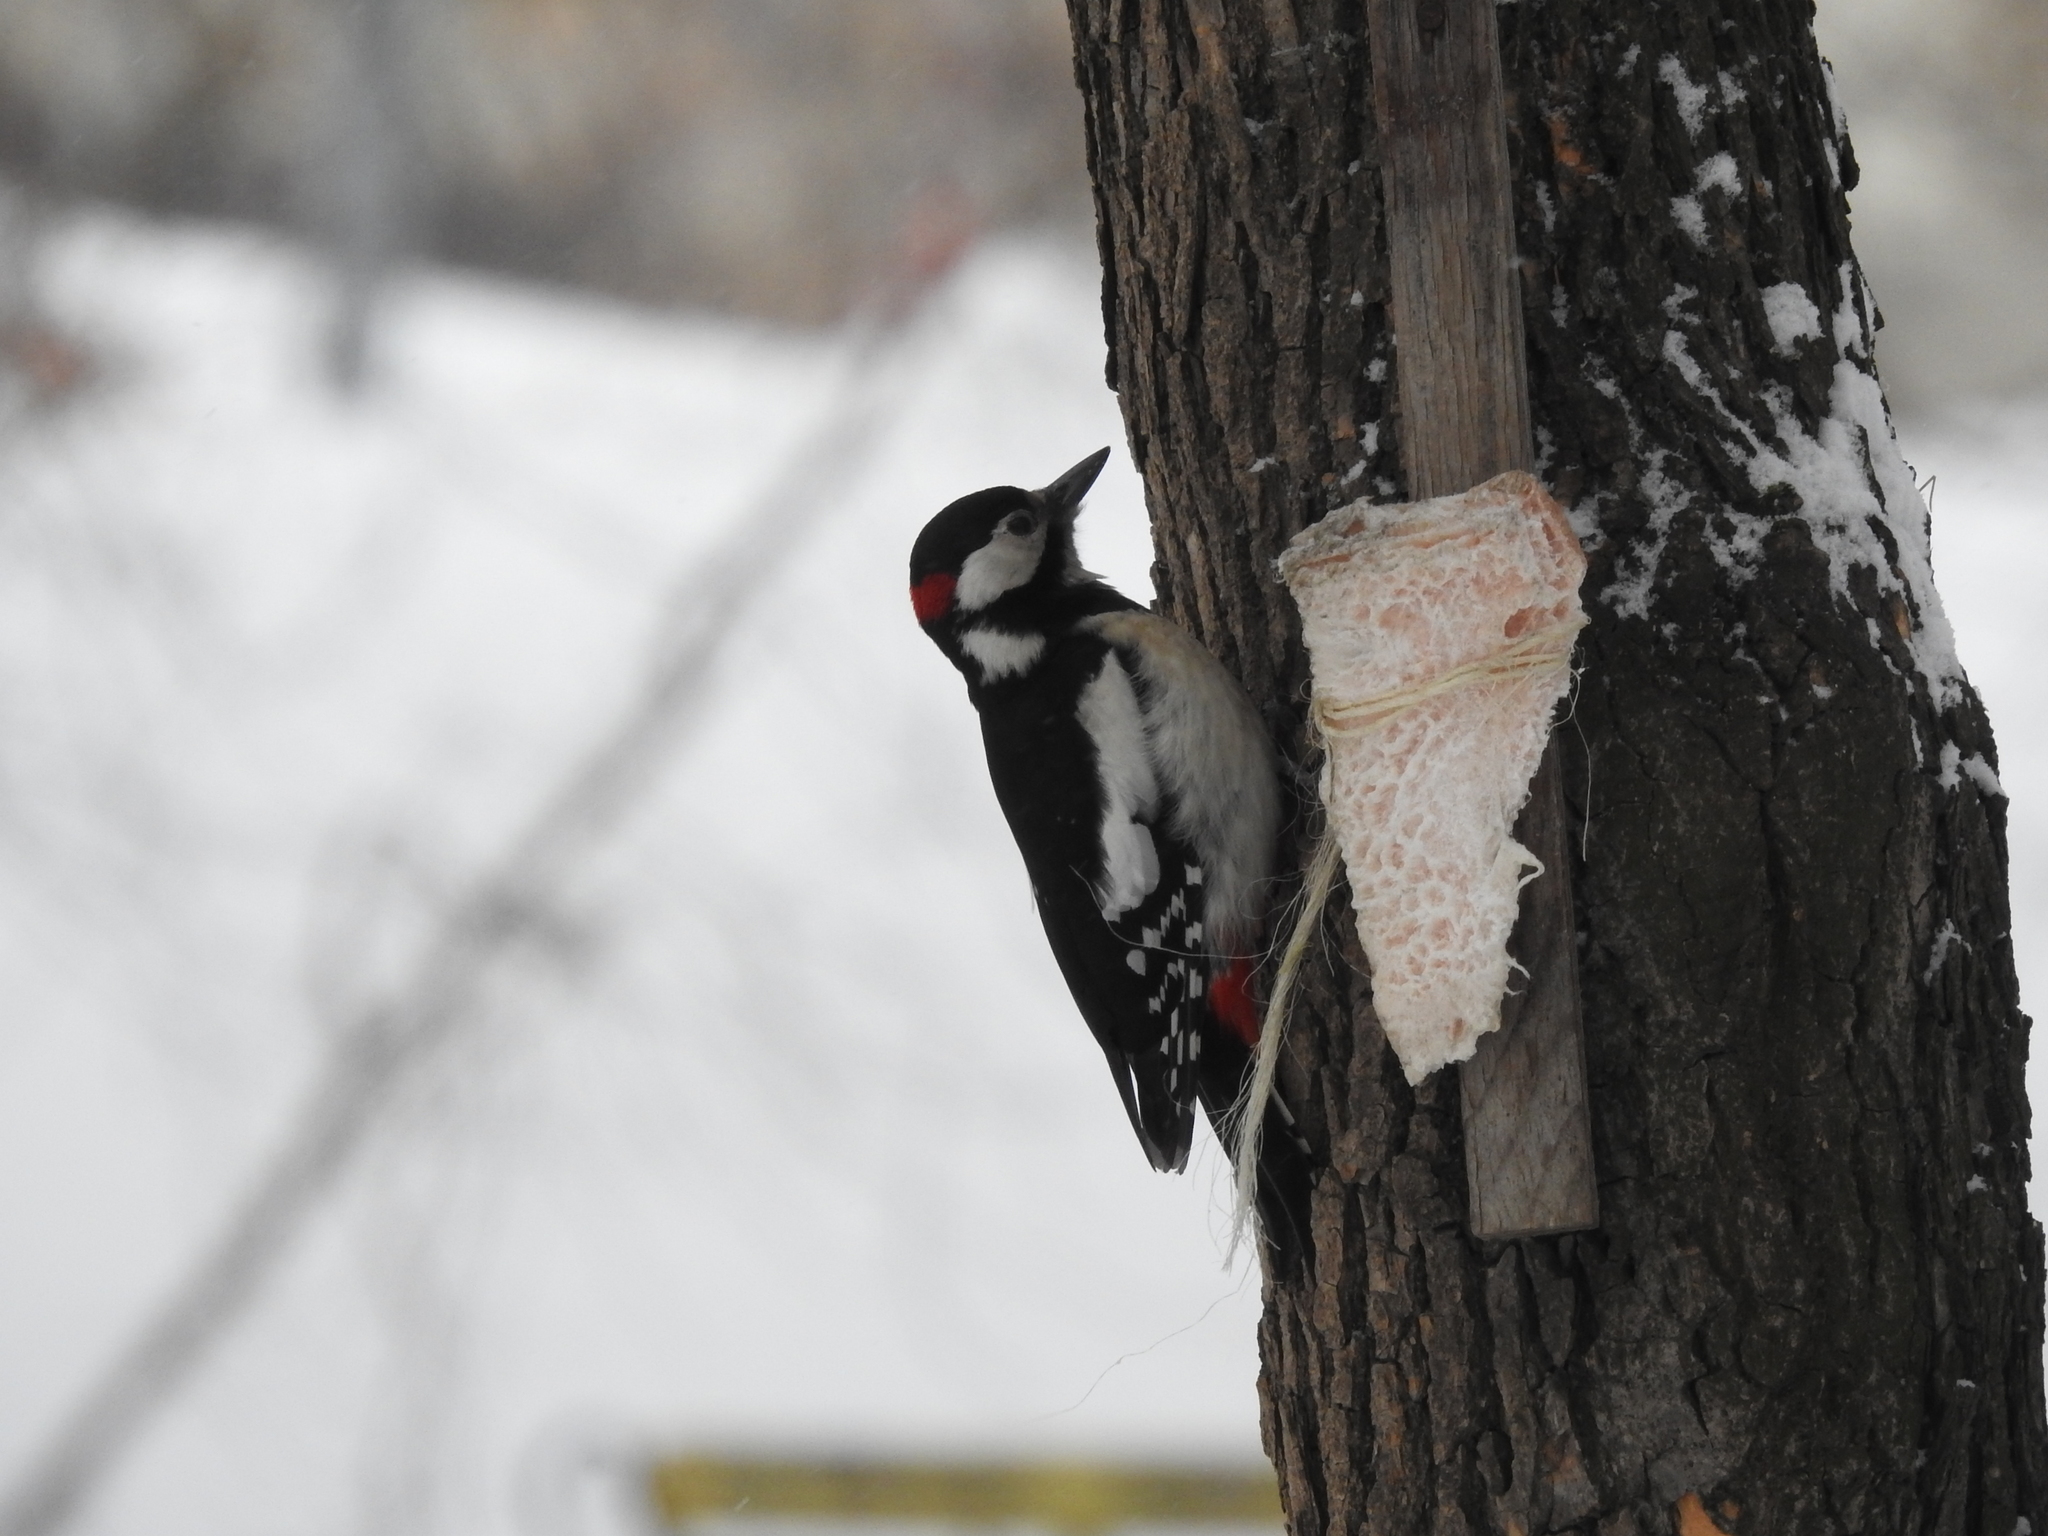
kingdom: Animalia
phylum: Chordata
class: Aves
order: Piciformes
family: Picidae
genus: Dendrocopos
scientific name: Dendrocopos major
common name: Great spotted woodpecker
